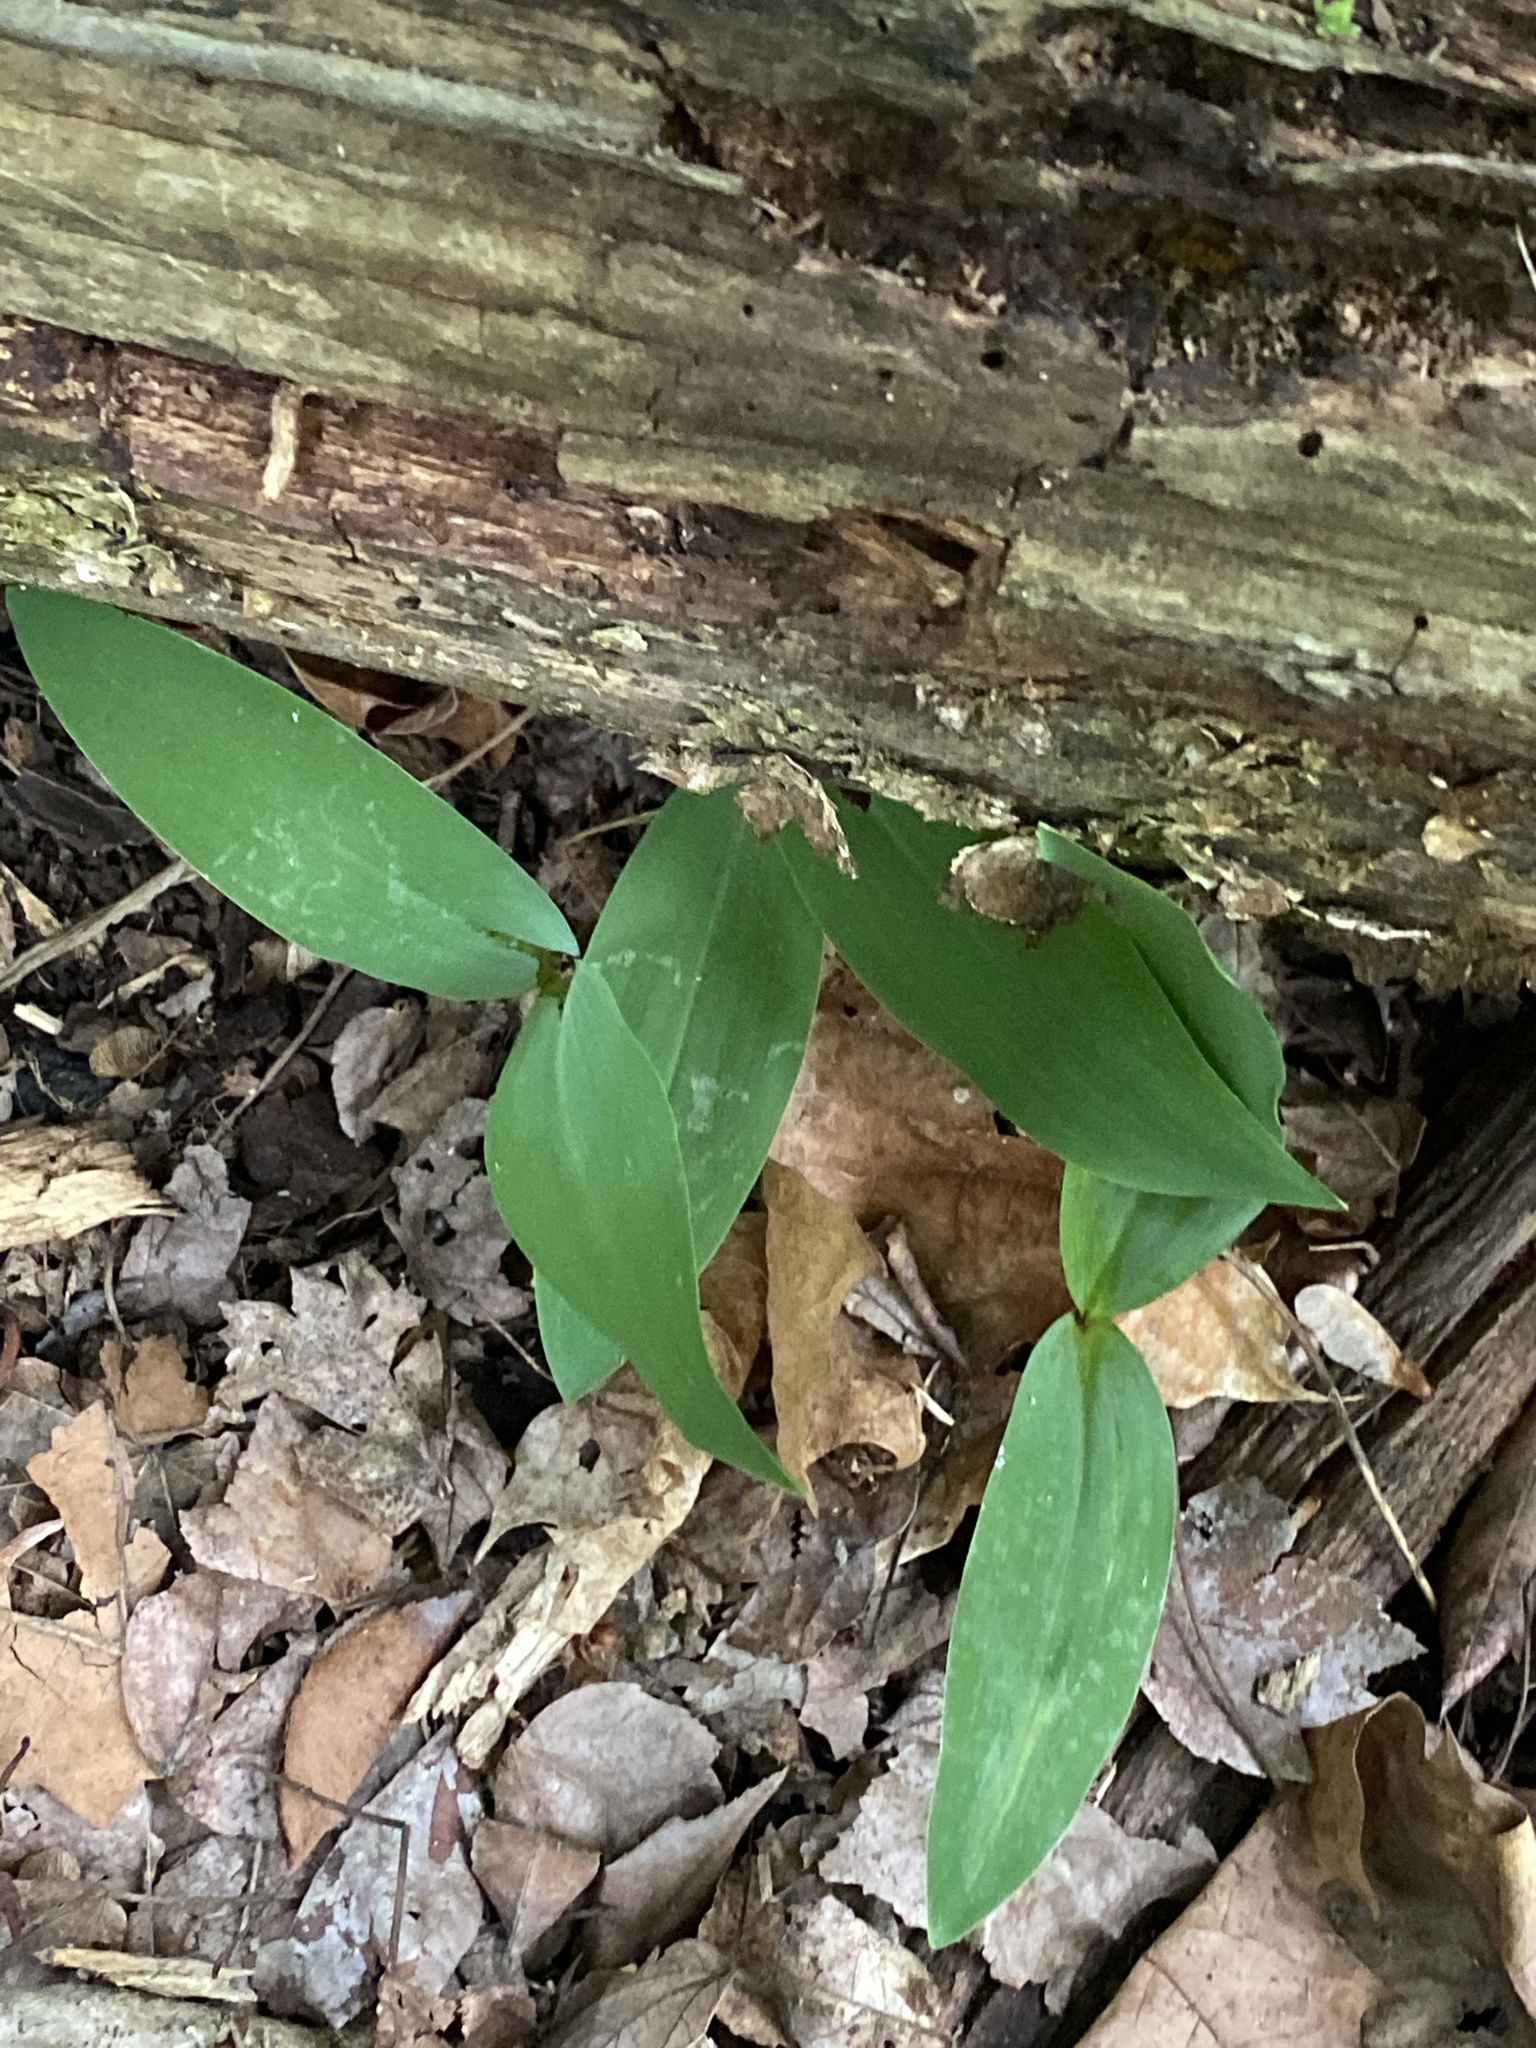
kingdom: Plantae
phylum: Tracheophyta
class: Liliopsida
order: Asparagales
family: Asparagaceae
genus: Convallaria
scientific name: Convallaria majalis
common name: Lily-of-the-valley
